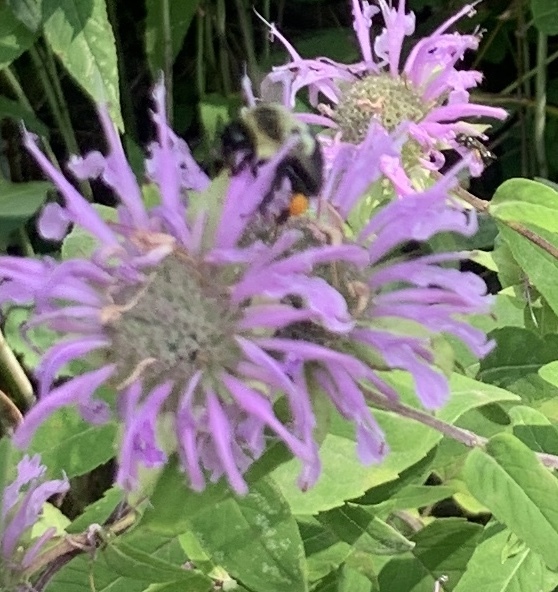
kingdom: Animalia
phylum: Arthropoda
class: Insecta
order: Hymenoptera
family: Apidae
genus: Bombus
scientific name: Bombus impatiens
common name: Common eastern bumble bee
